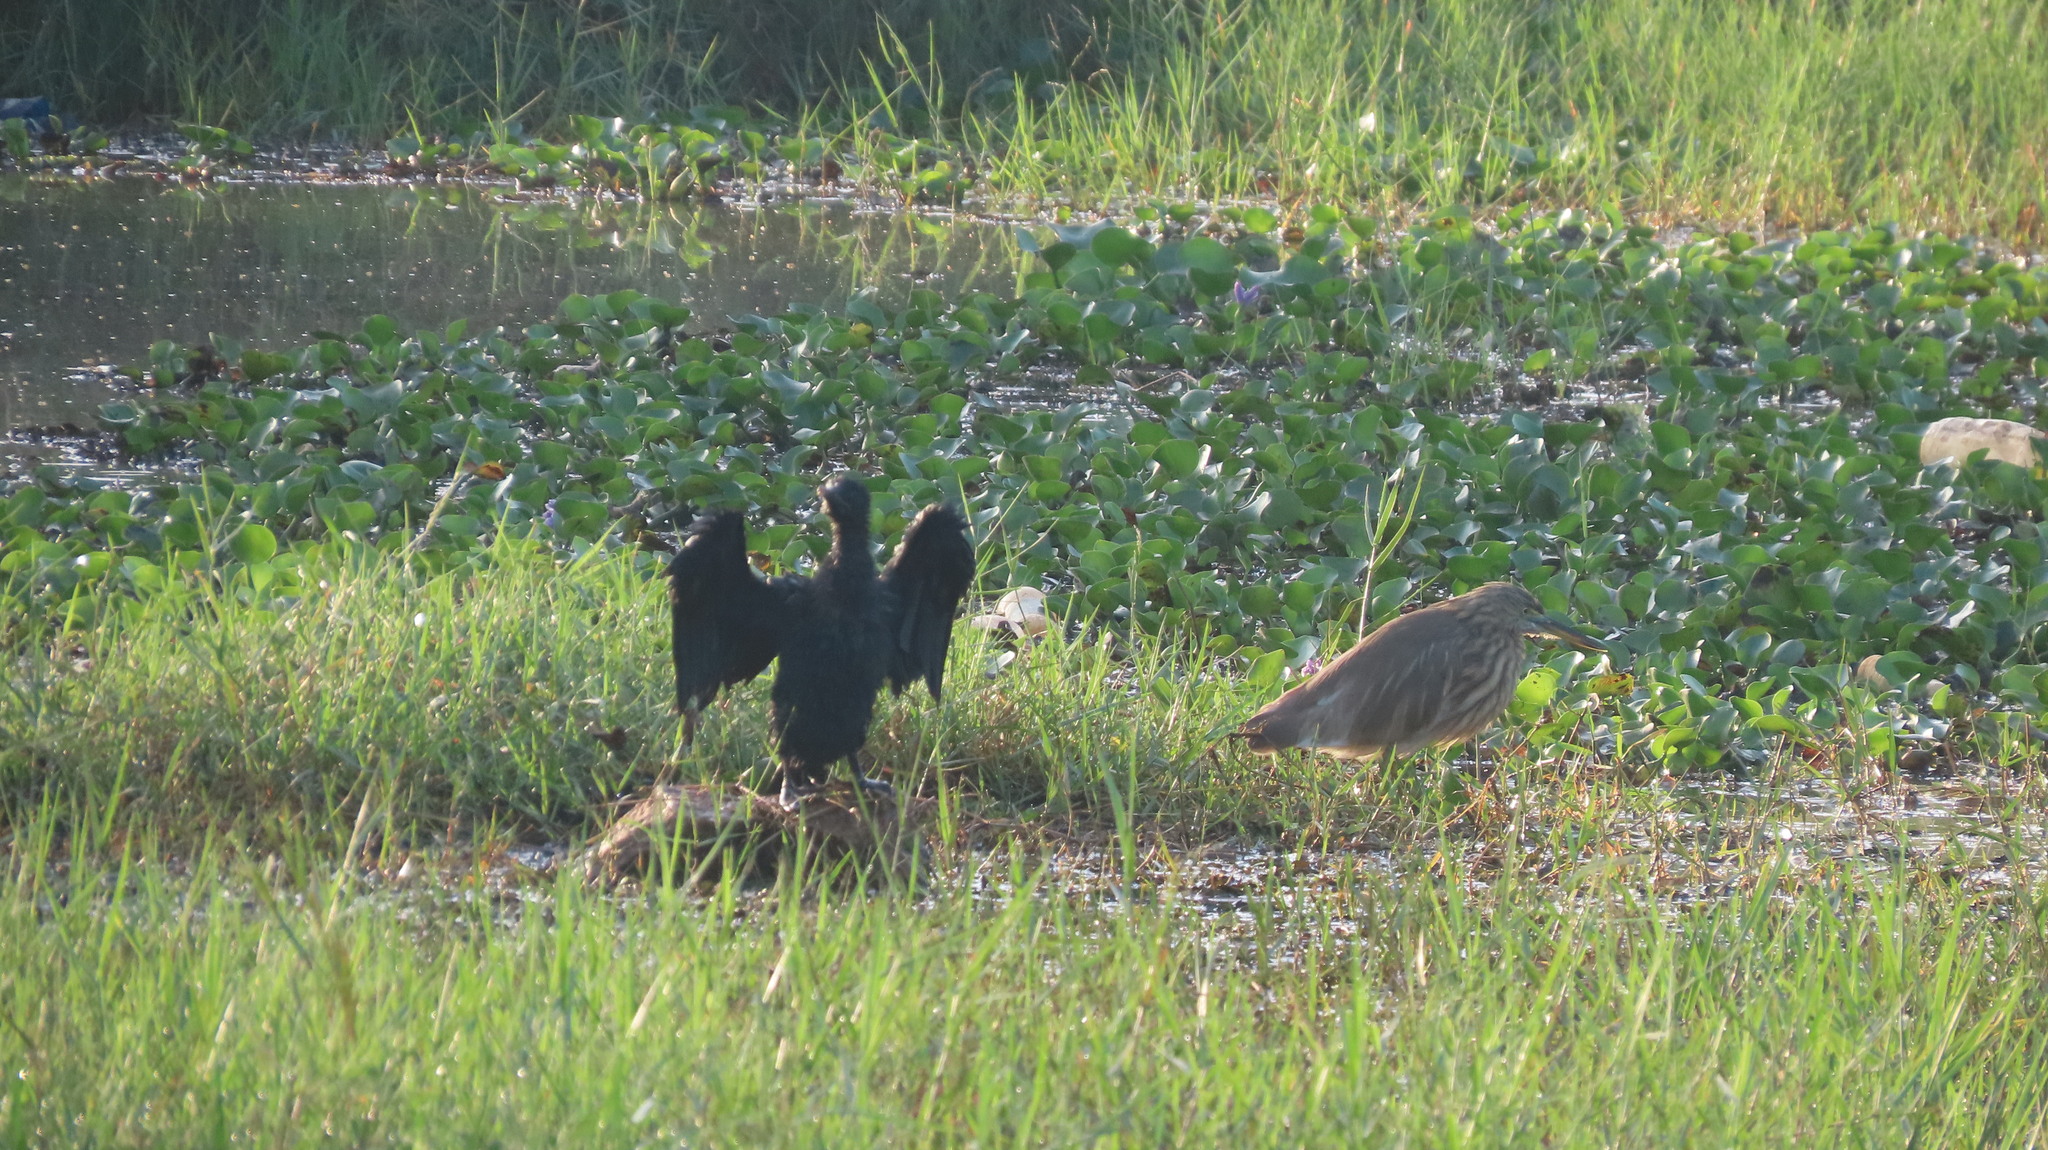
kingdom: Animalia
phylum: Chordata
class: Aves
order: Pelecaniformes
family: Ardeidae
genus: Ardeola
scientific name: Ardeola grayii
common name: Indian pond heron
